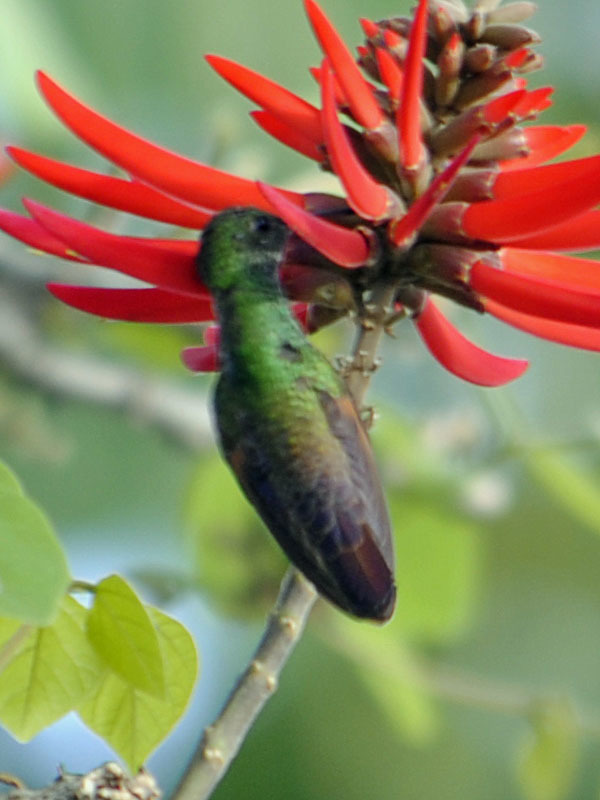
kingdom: Animalia
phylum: Chordata
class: Aves
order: Apodiformes
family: Trochilidae
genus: Saucerottia
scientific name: Saucerottia beryllina
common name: Berylline hummingbird
